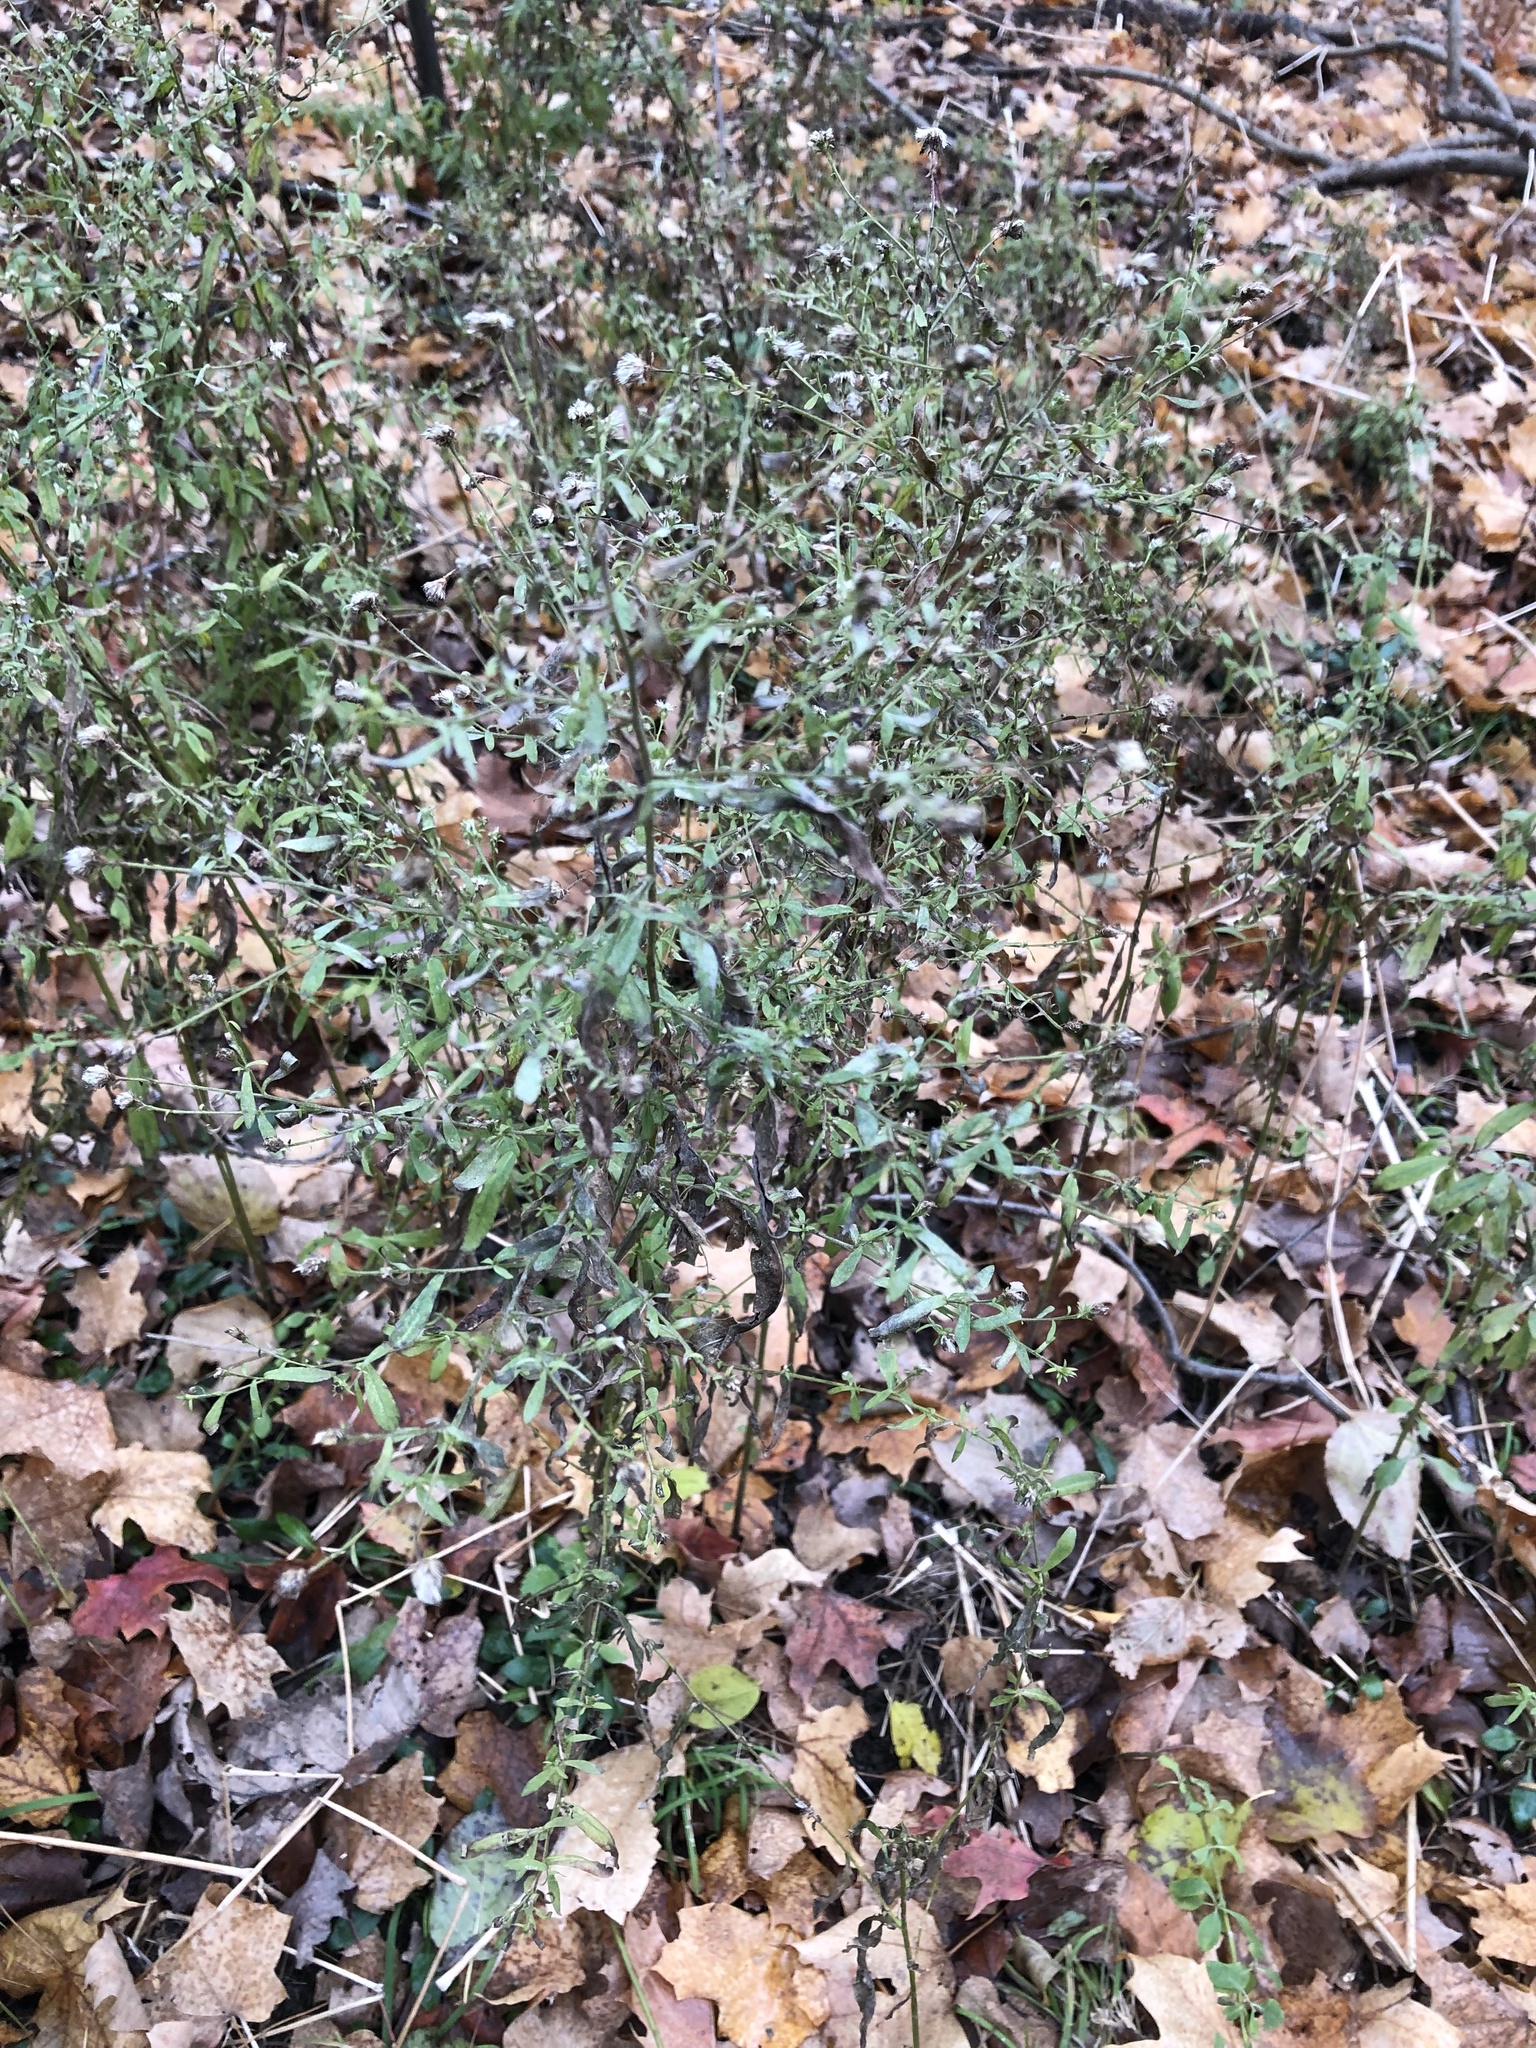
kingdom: Plantae
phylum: Tracheophyta
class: Magnoliopsida
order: Asterales
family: Asteraceae
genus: Symphyotrichum
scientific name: Symphyotrichum lateriflorum
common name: Calico aster
